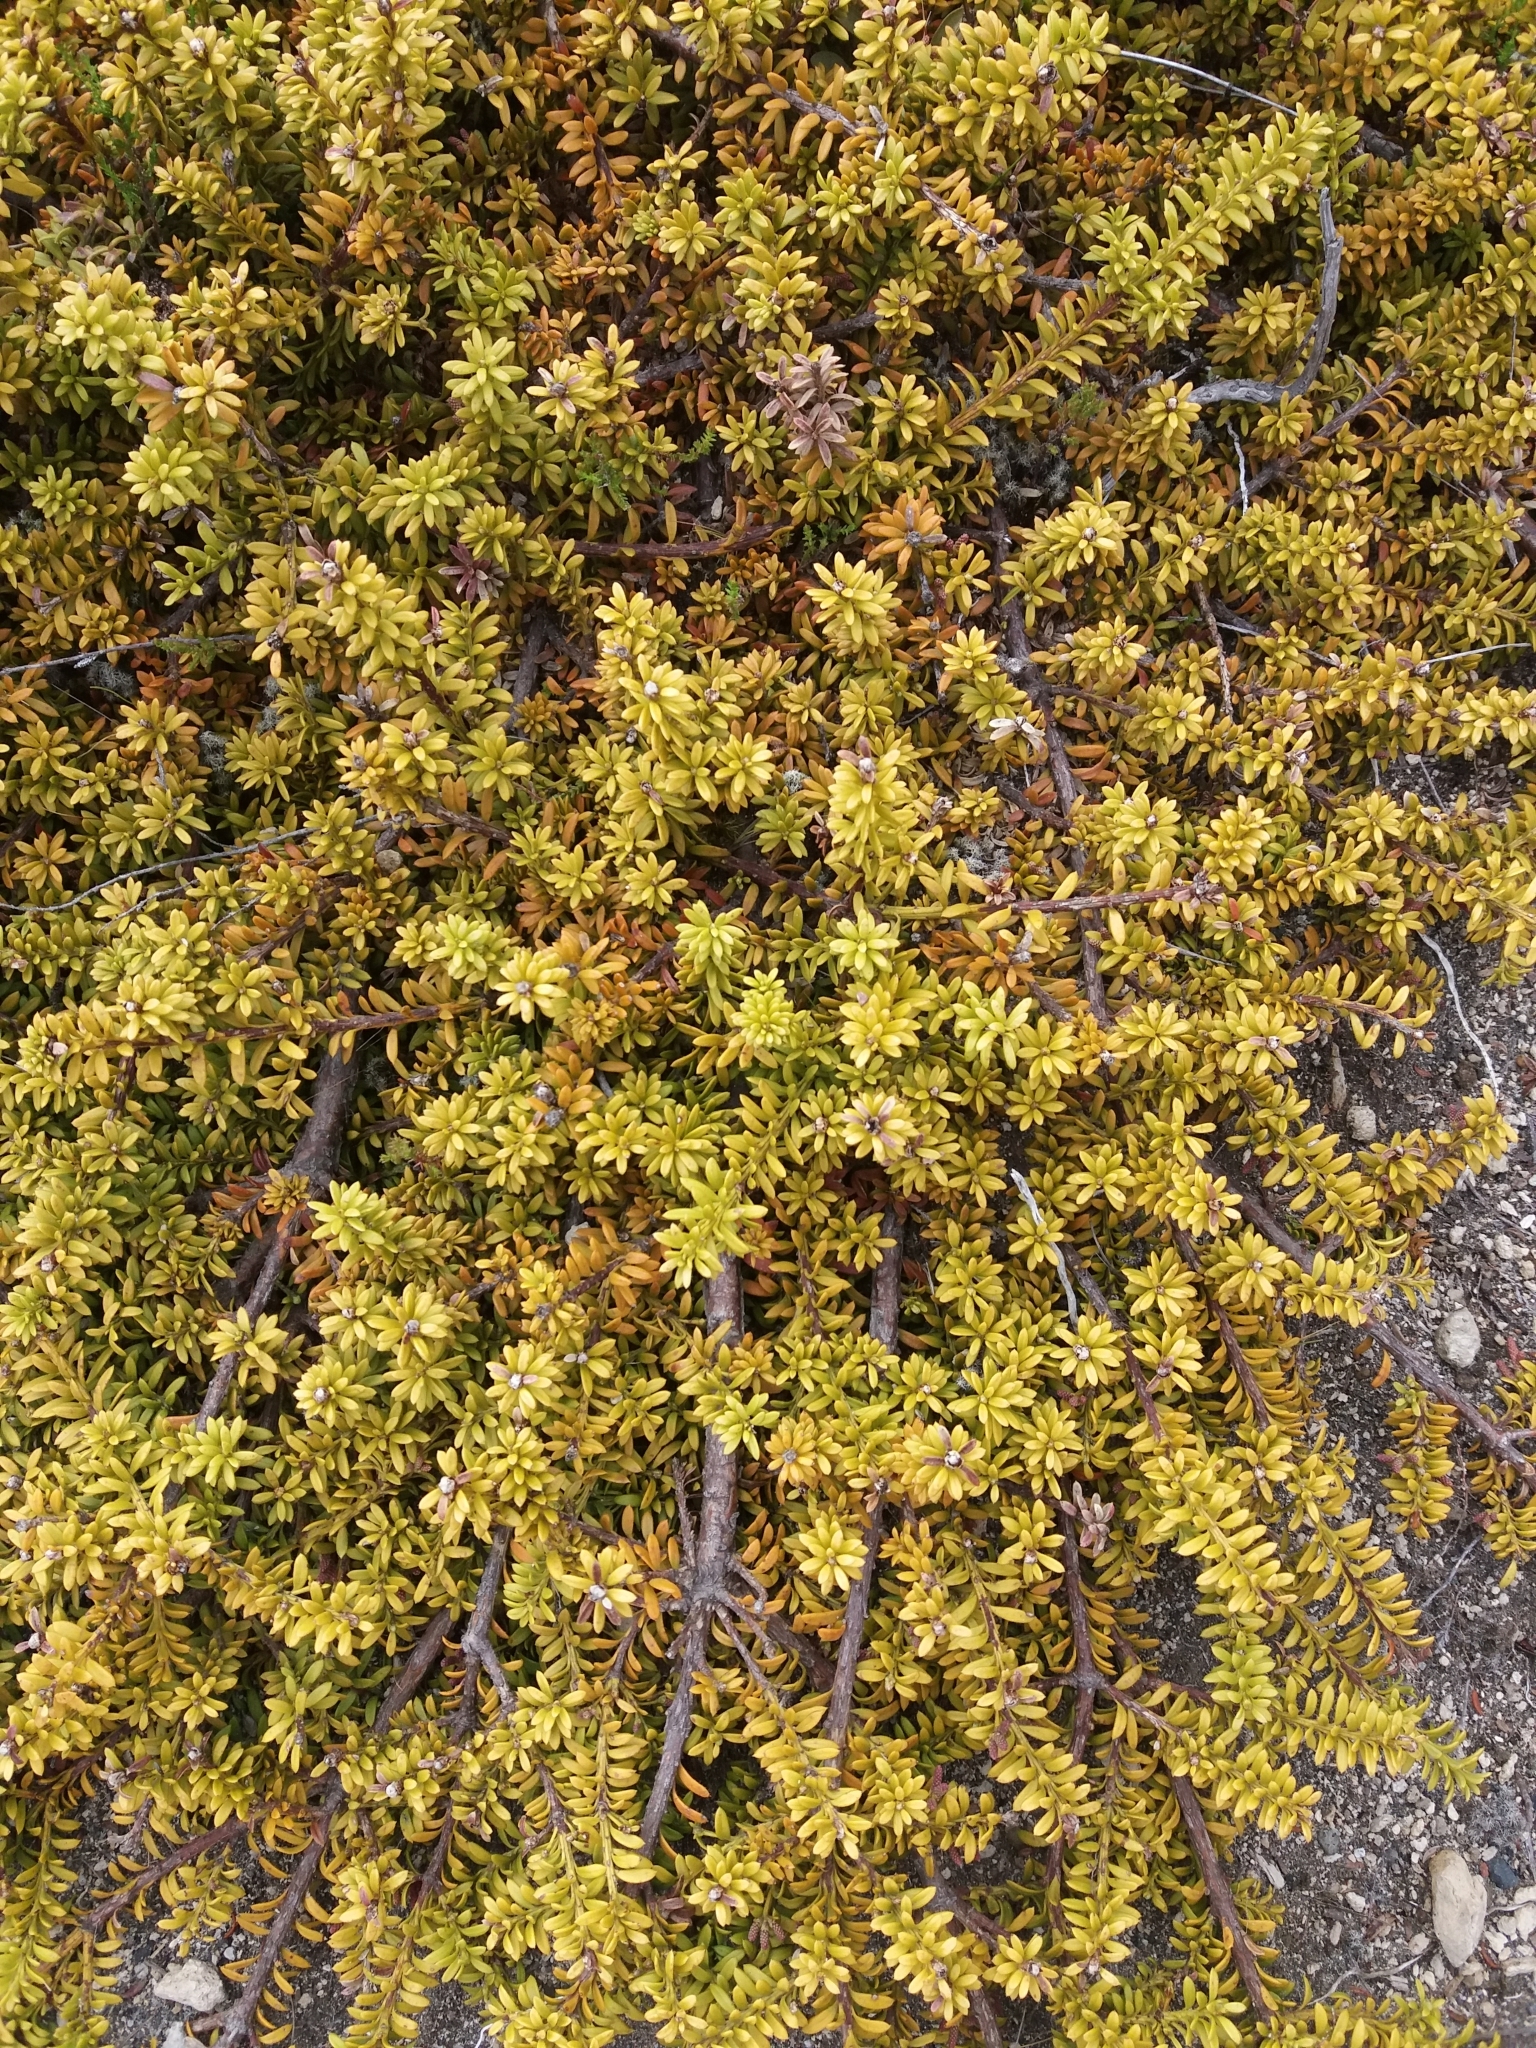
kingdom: Plantae
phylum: Tracheophyta
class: Pinopsida
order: Pinales
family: Podocarpaceae
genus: Podocarpus
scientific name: Podocarpus nivalis
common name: Alpine totara
